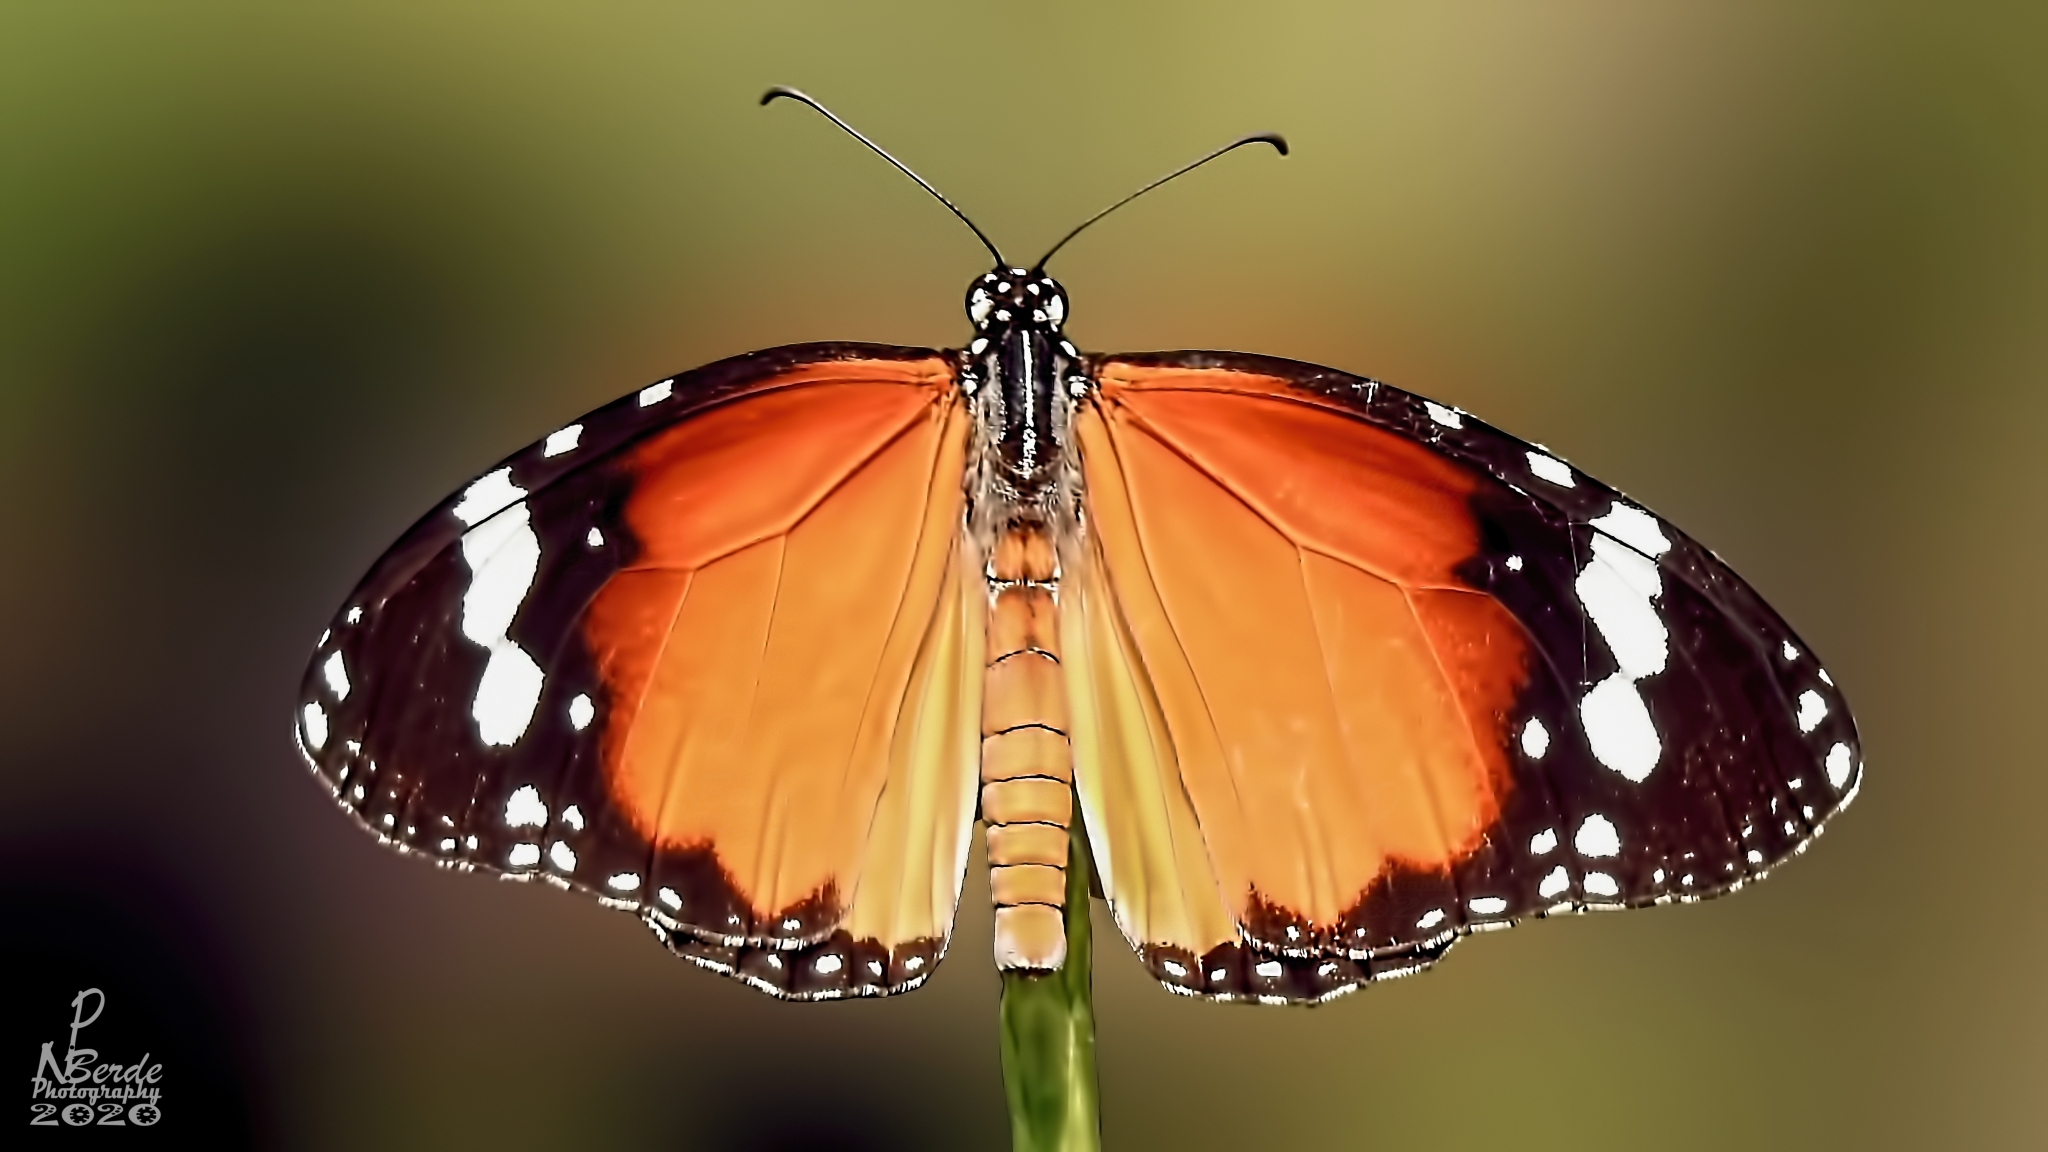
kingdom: Animalia
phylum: Arthropoda
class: Insecta
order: Lepidoptera
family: Nymphalidae
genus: Danaus
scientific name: Danaus chrysippus
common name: Plain tiger
